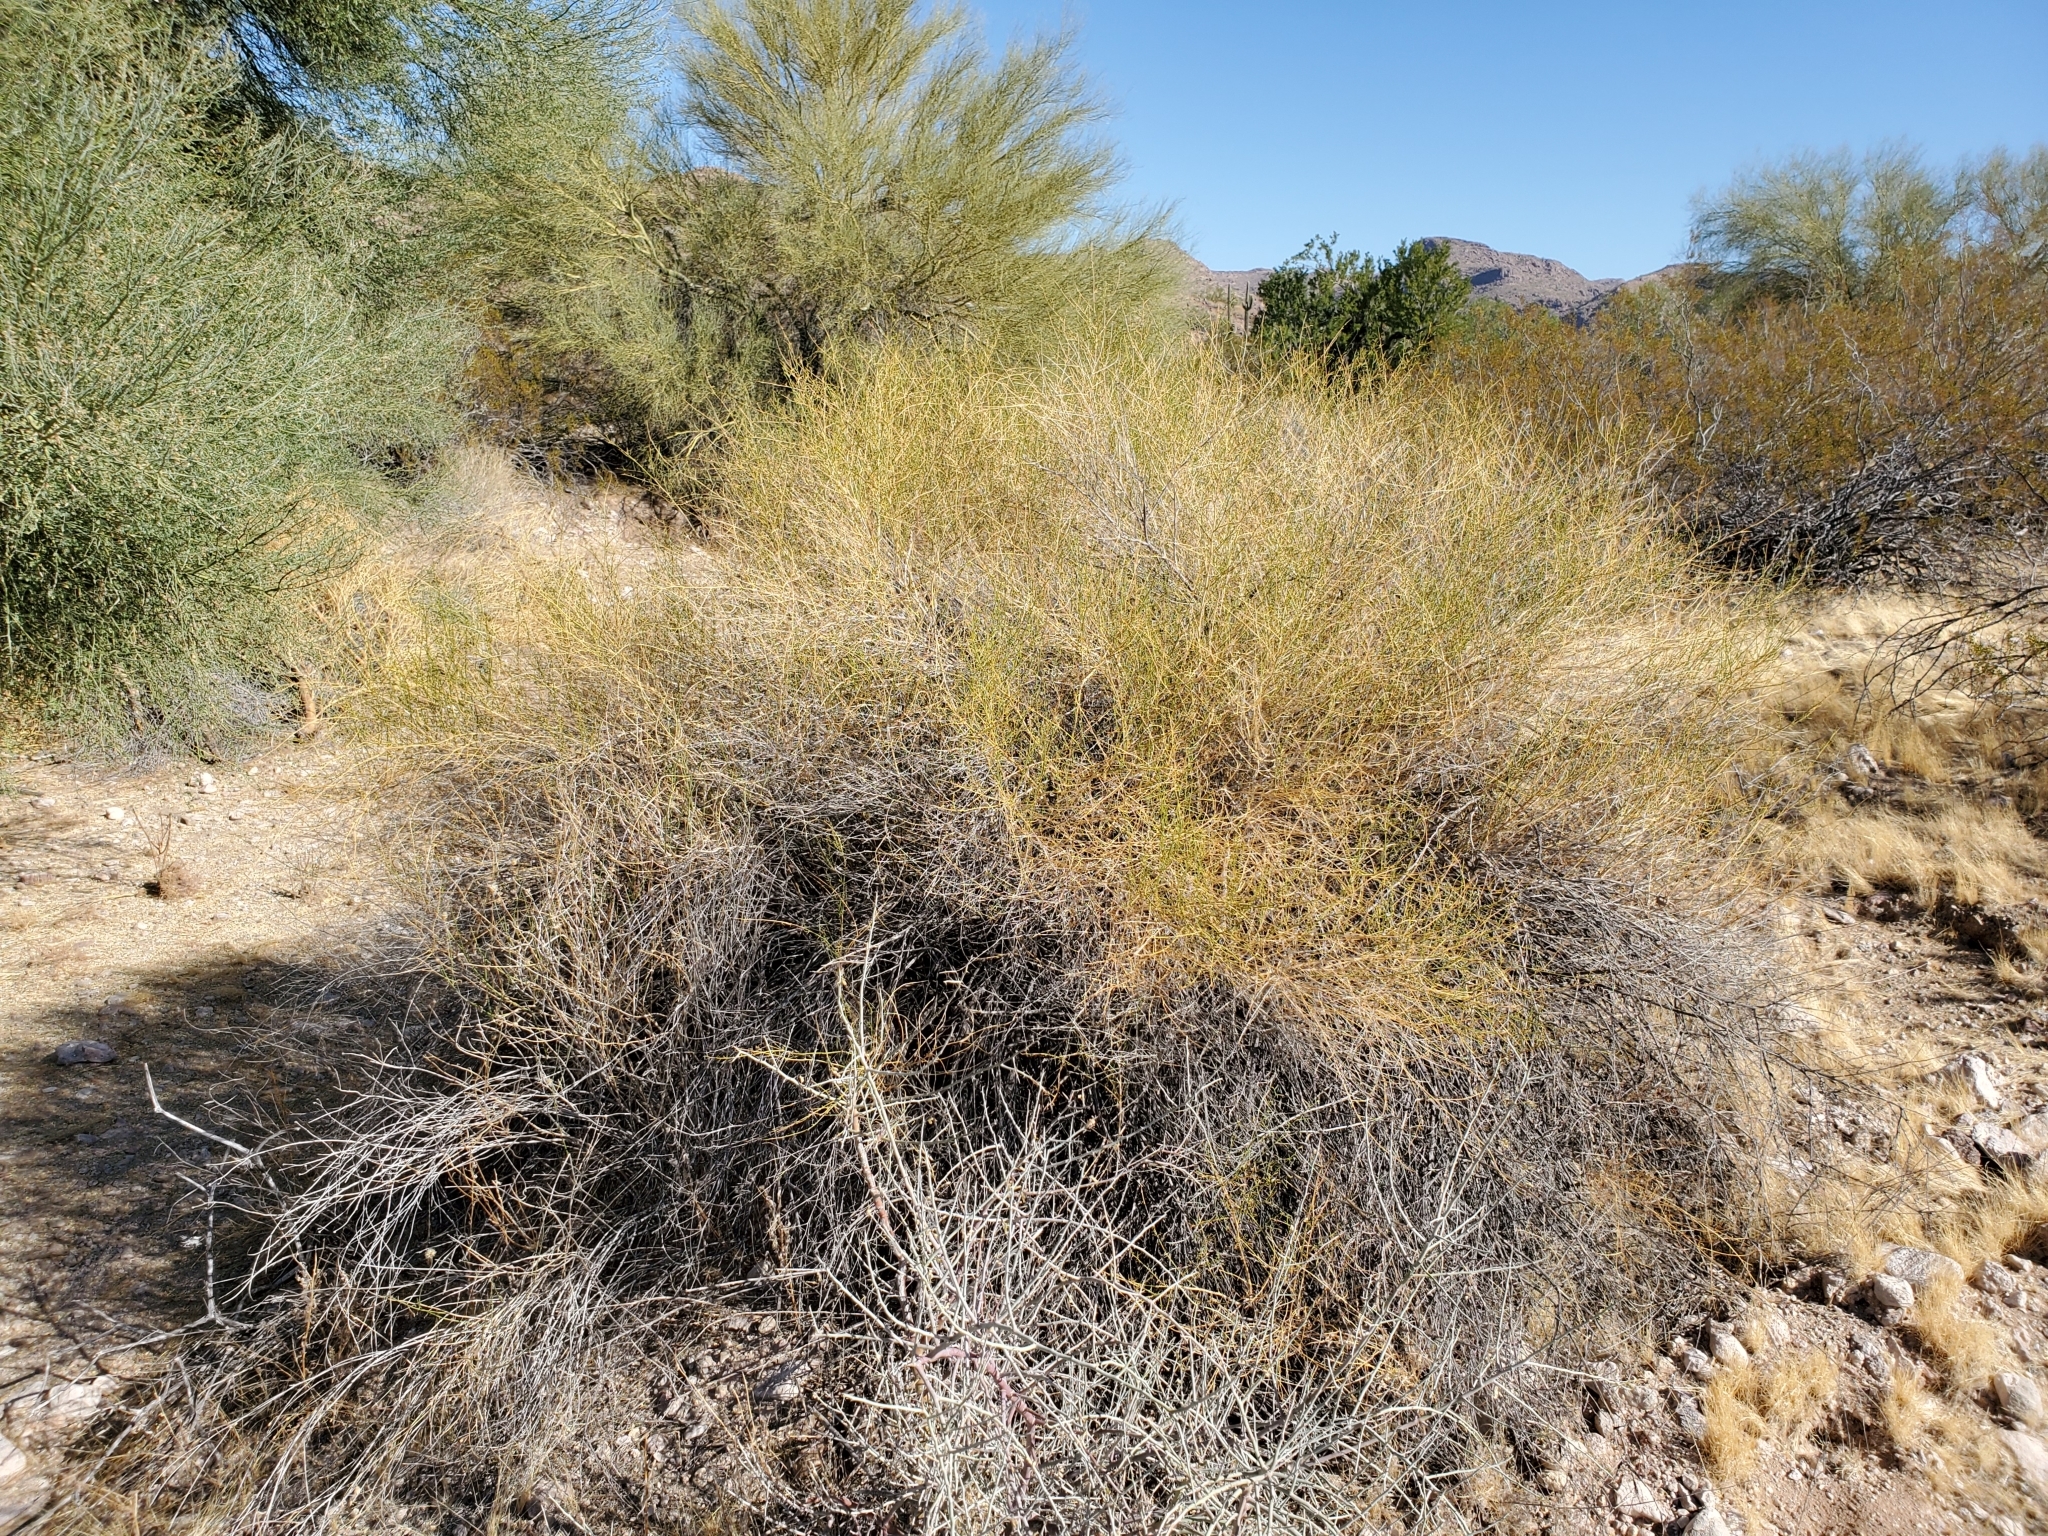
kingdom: Plantae
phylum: Tracheophyta
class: Magnoliopsida
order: Asterales
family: Asteraceae
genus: Ambrosia
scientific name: Ambrosia salsola
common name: Burrobrush
